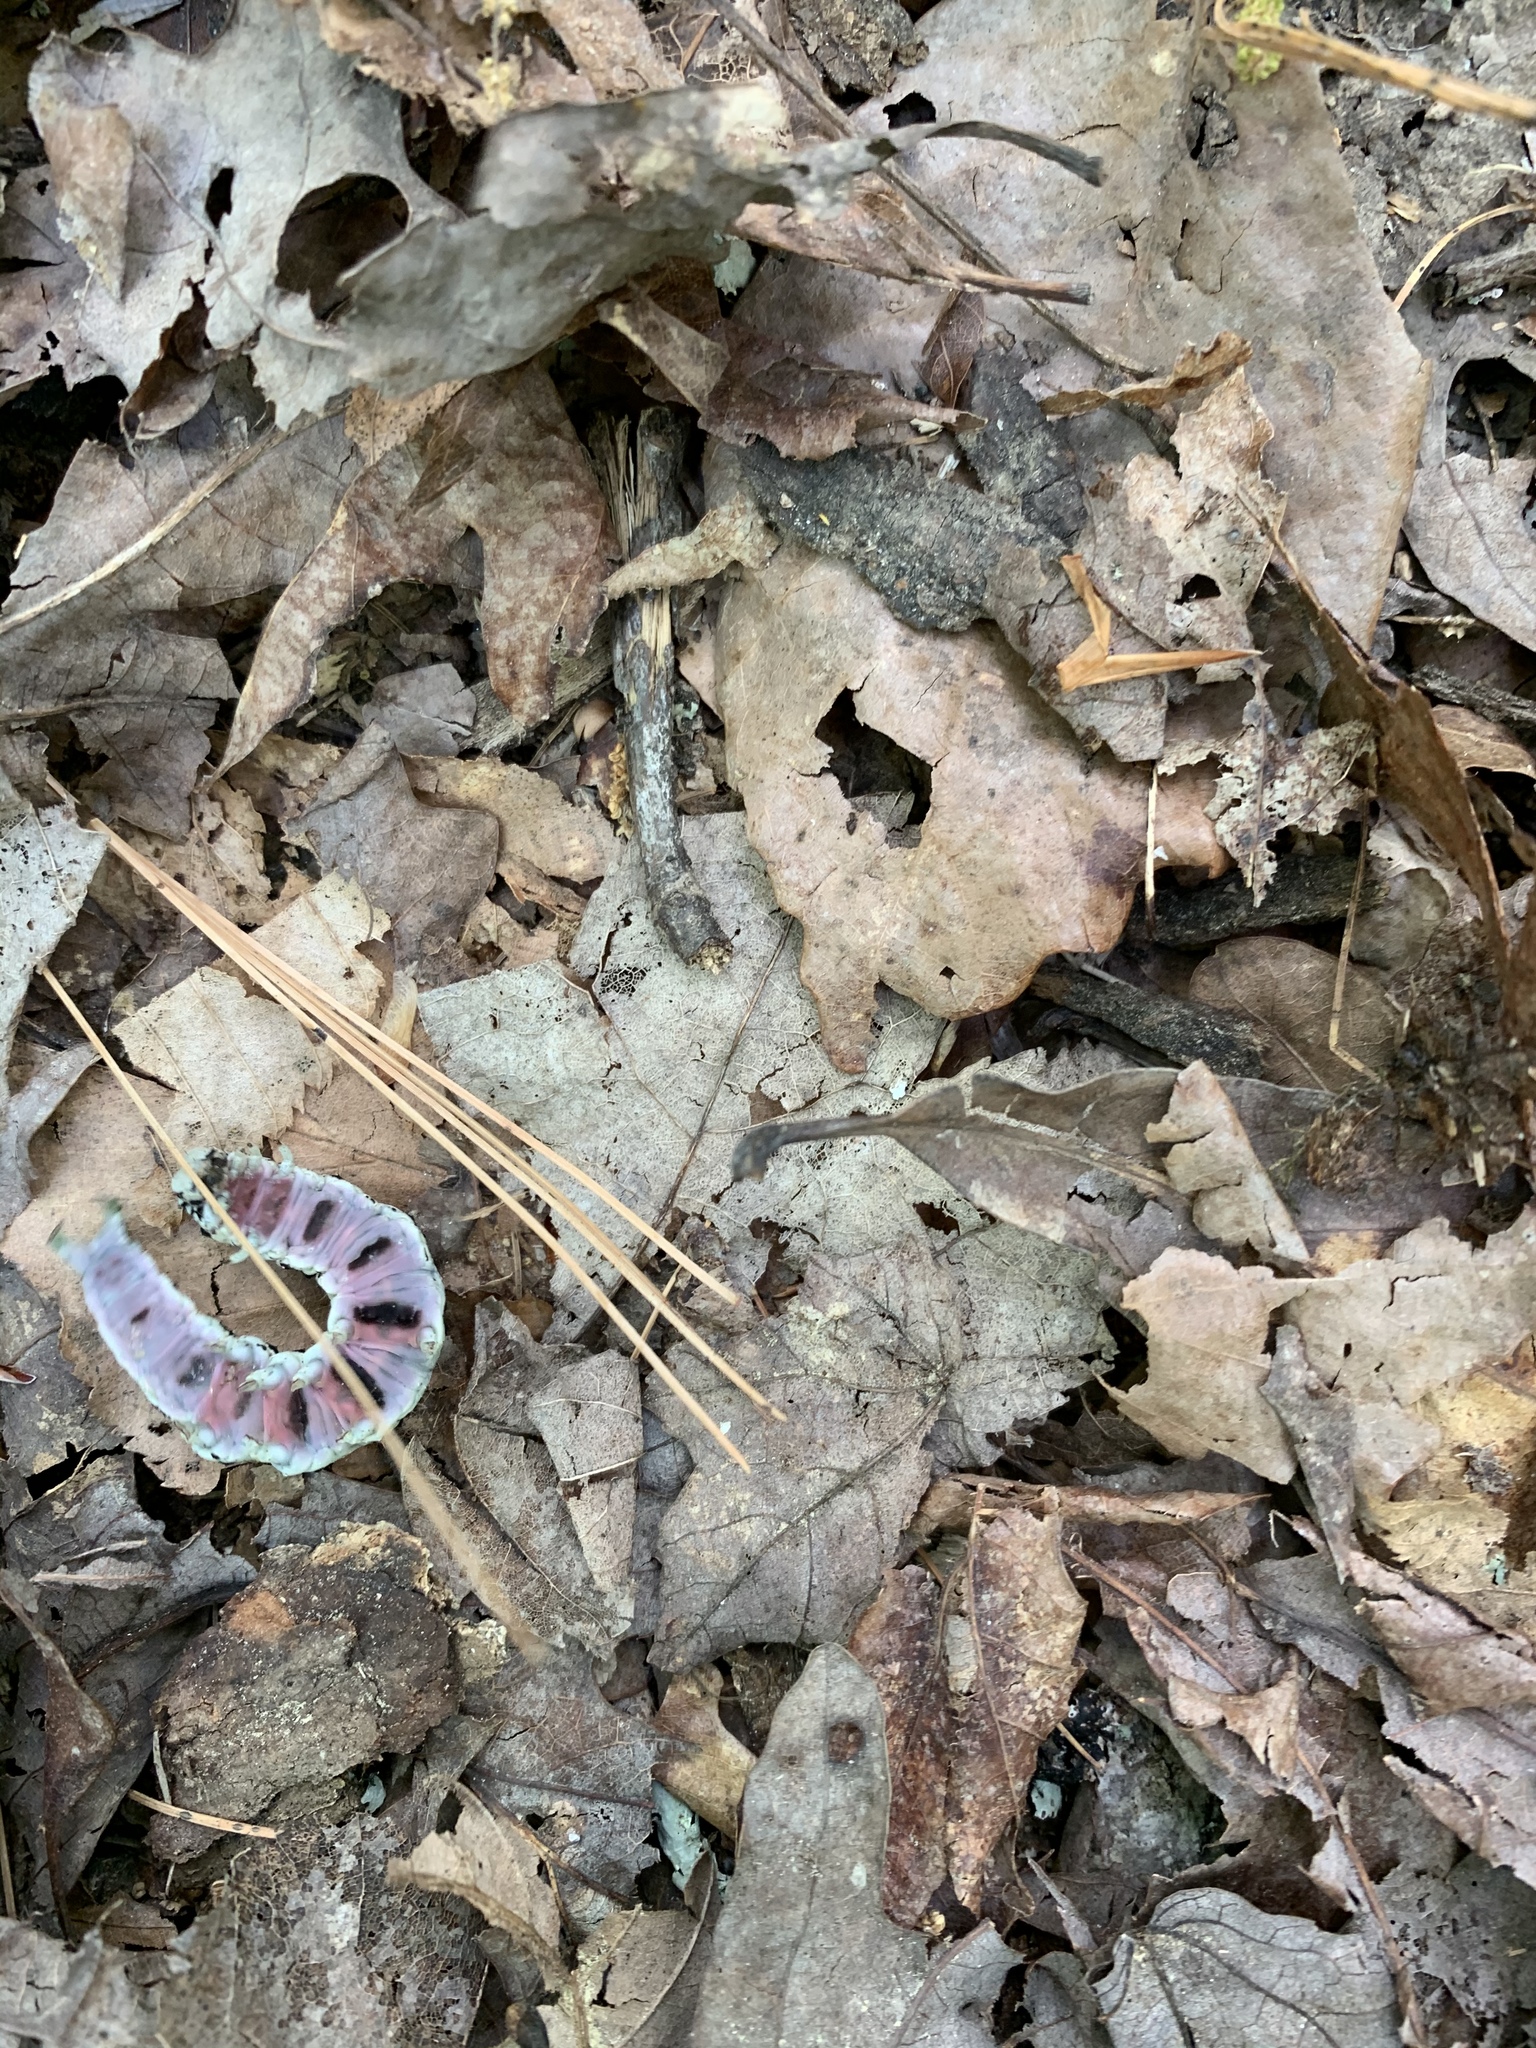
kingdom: Animalia
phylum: Arthropoda
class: Insecta
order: Lepidoptera
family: Erebidae
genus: Catocala
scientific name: Catocala ilia
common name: Ilia underwing
